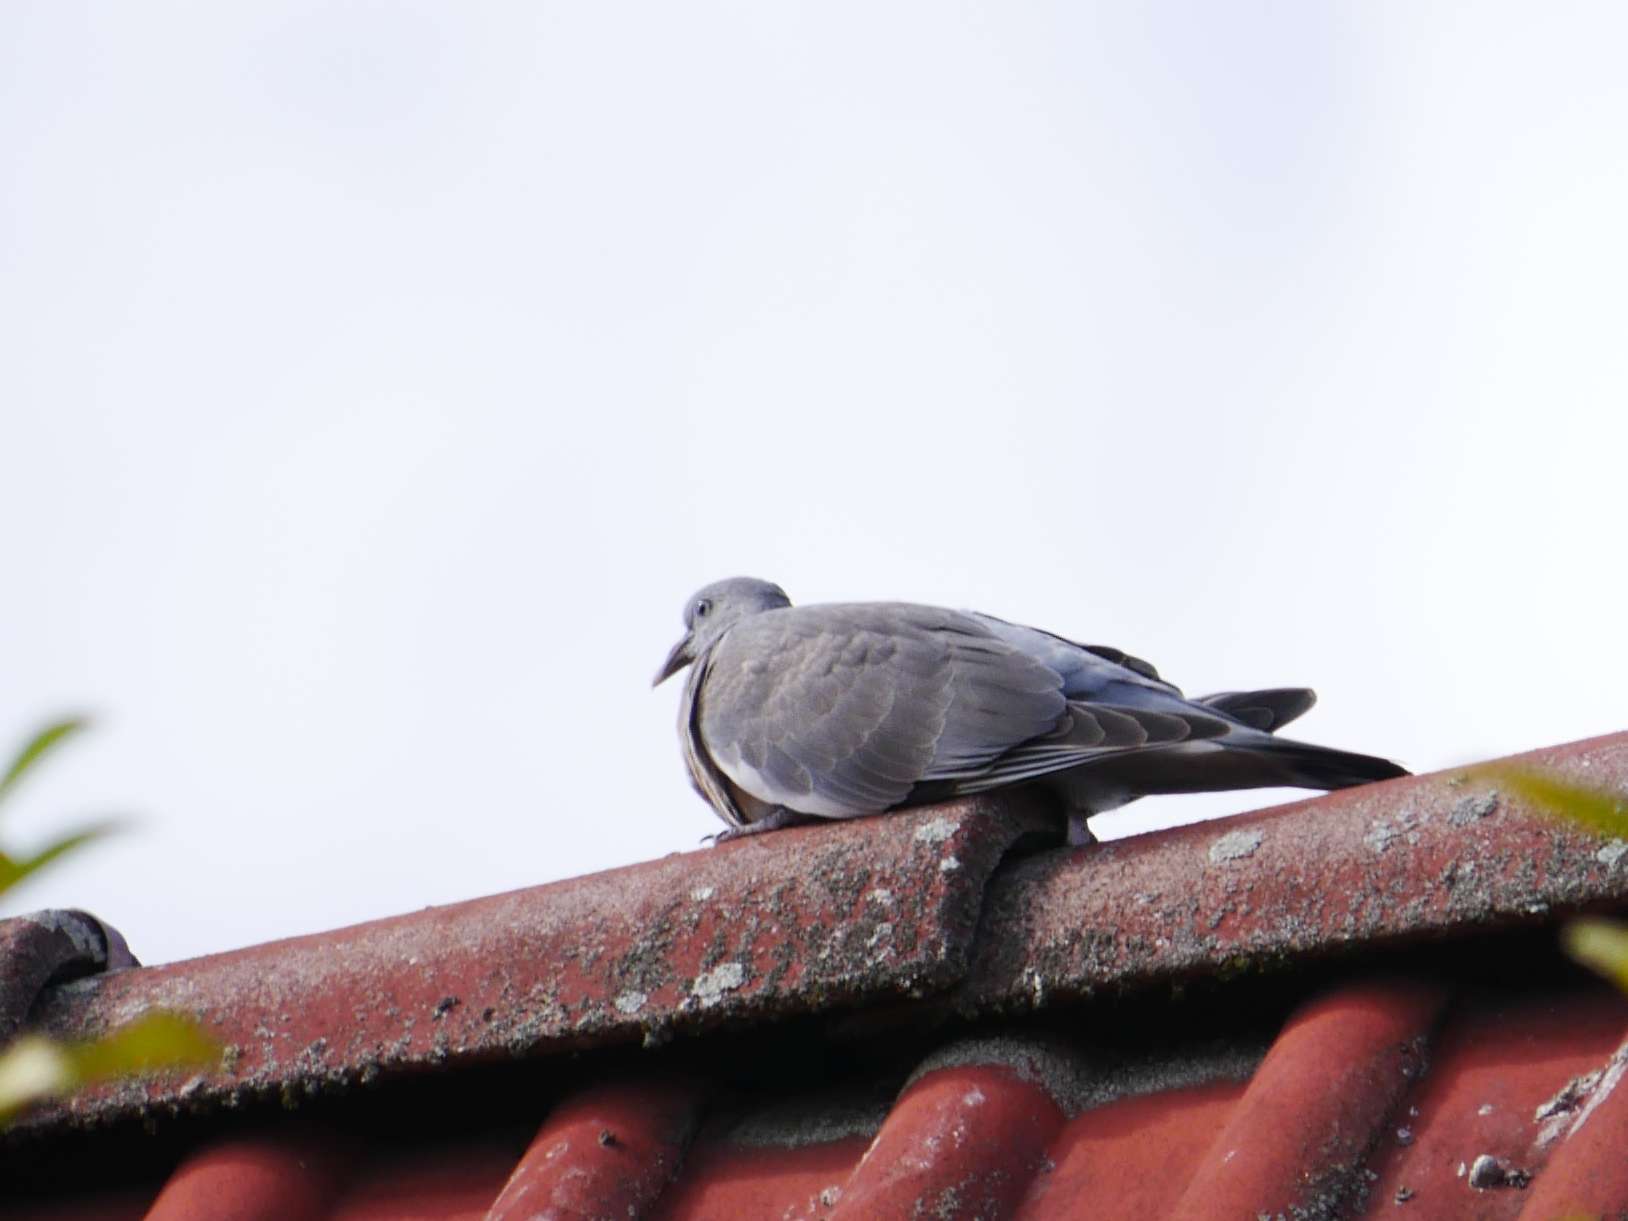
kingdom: Animalia
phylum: Chordata
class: Aves
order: Columbiformes
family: Columbidae
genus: Columba
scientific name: Columba palumbus
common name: Common wood pigeon
